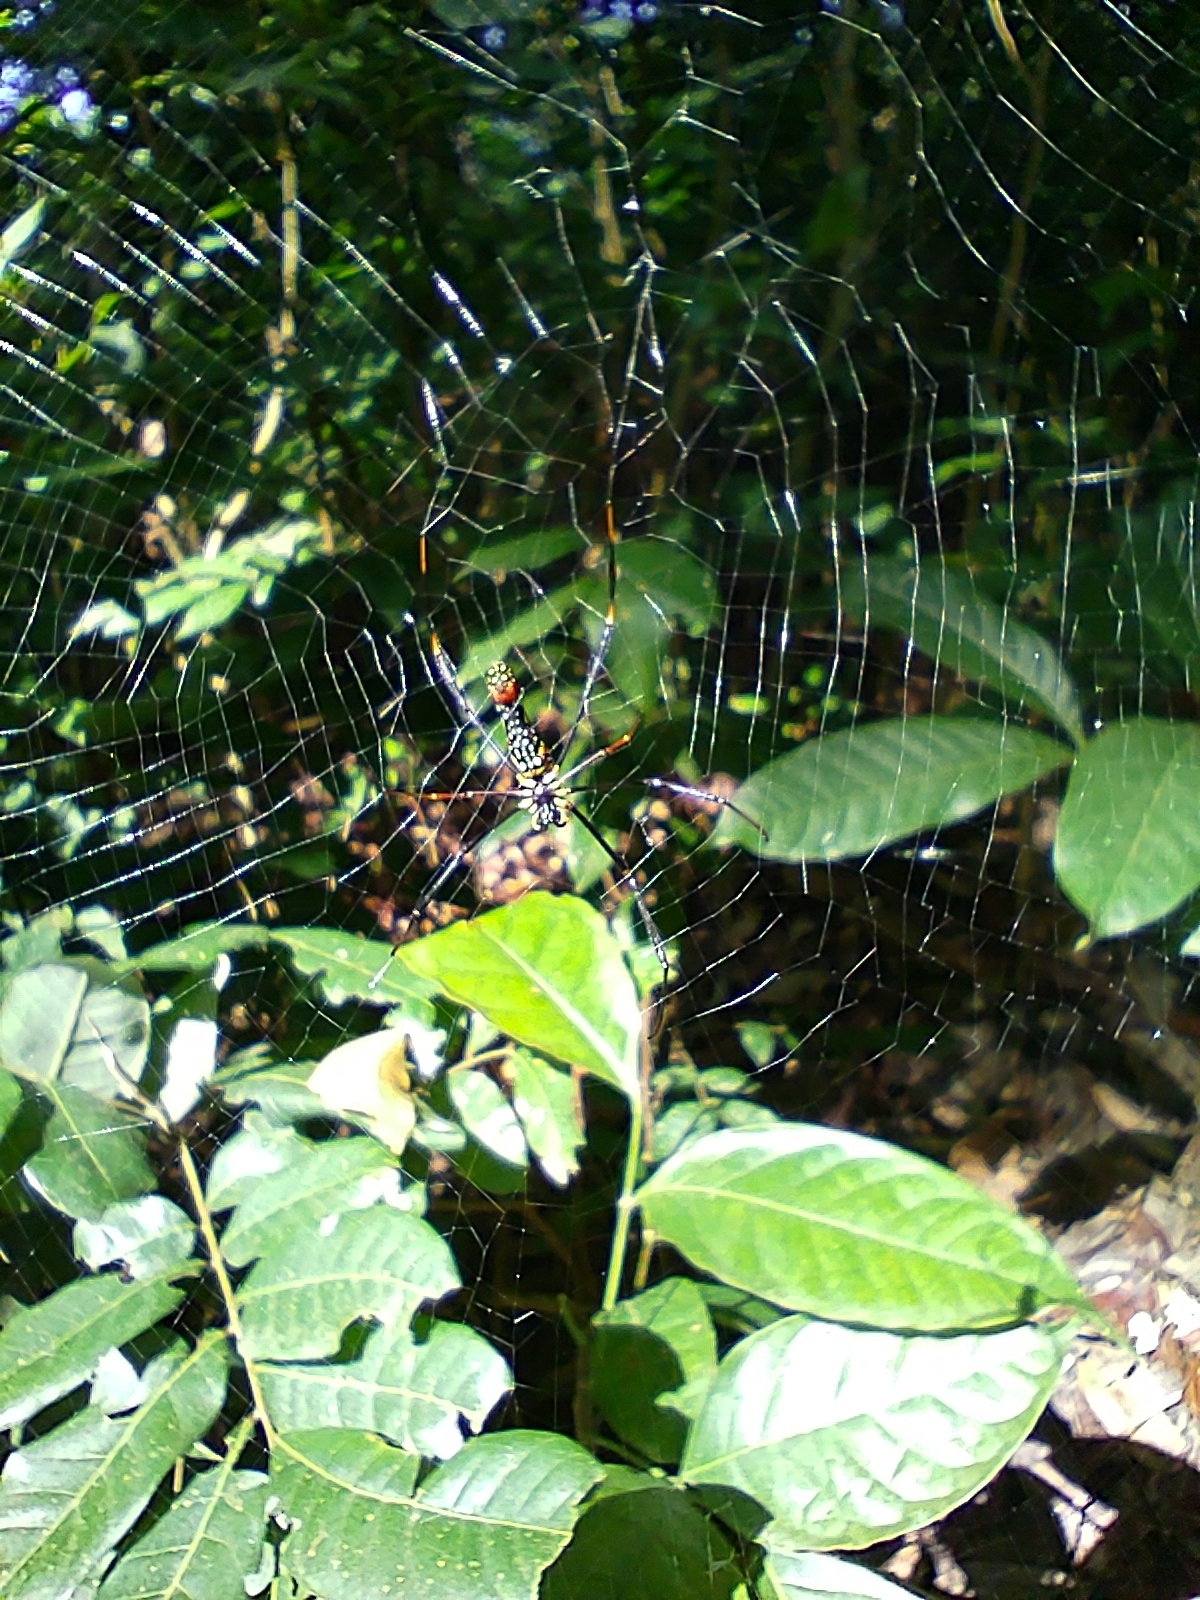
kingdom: Animalia
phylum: Arthropoda
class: Arachnida
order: Araneae
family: Araneidae
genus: Nephila
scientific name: Nephila pilipes
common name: Giant golden orb weaver
